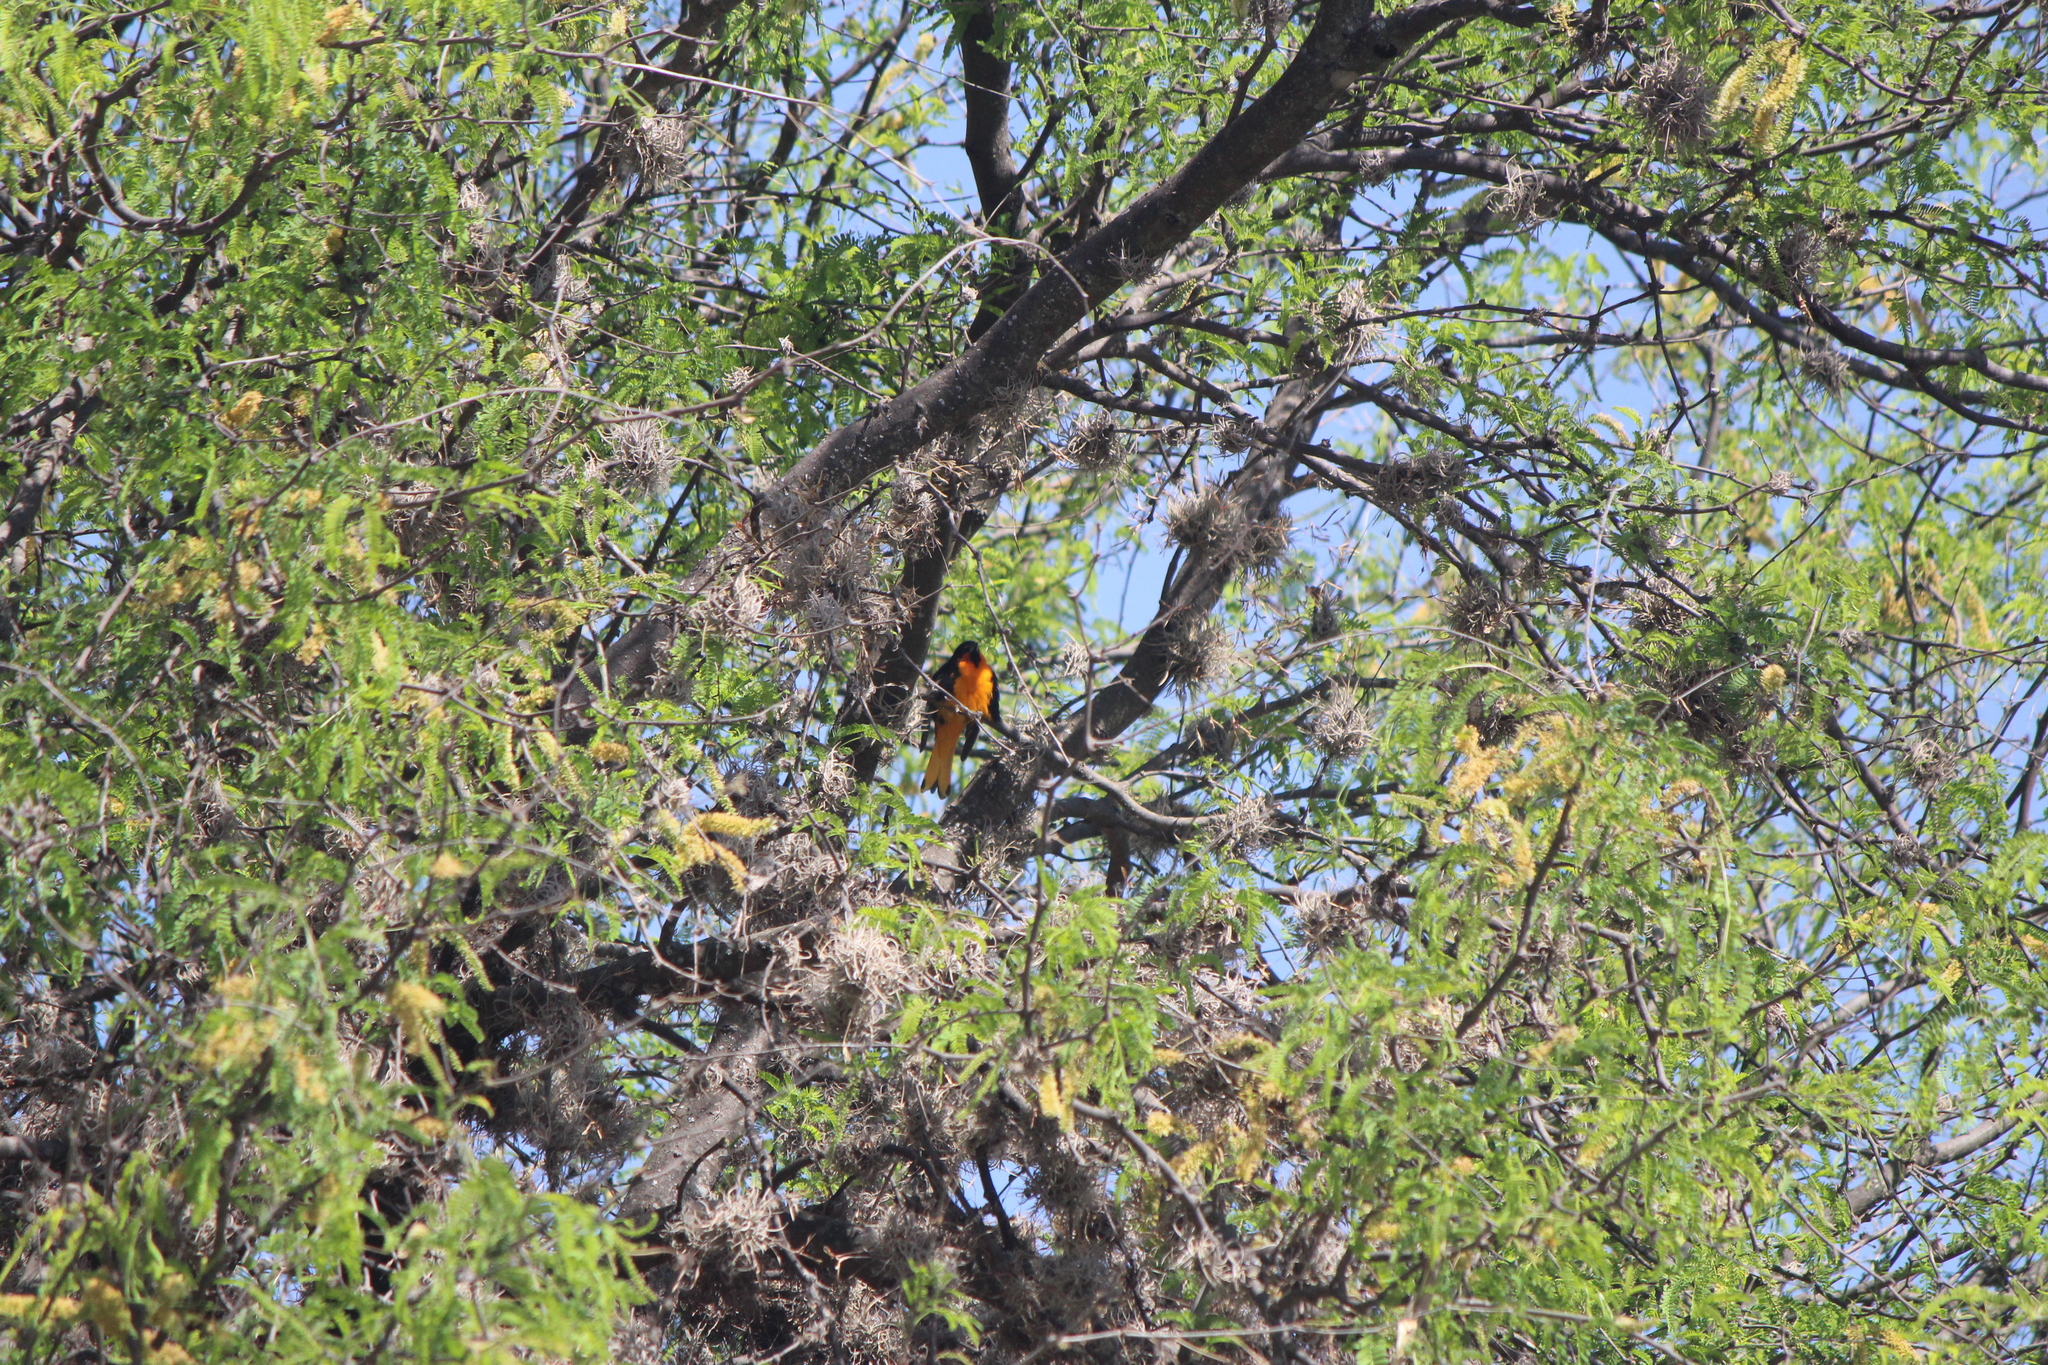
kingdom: Animalia
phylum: Chordata
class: Aves
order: Passeriformes
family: Icteridae
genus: Icterus
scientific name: Icterus abeillei
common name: Black-backed oriole
